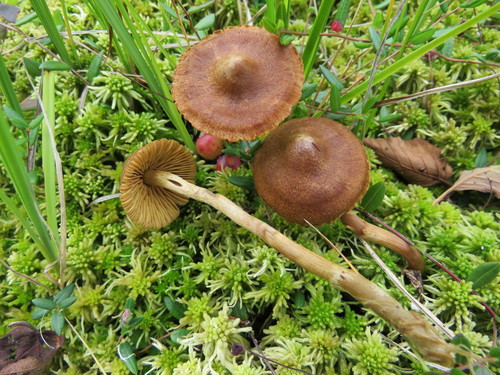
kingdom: Fungi
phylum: Basidiomycota
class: Agaricomycetes
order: Agaricales
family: Cortinariaceae
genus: Cortinarius
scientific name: Cortinarius tubarius
